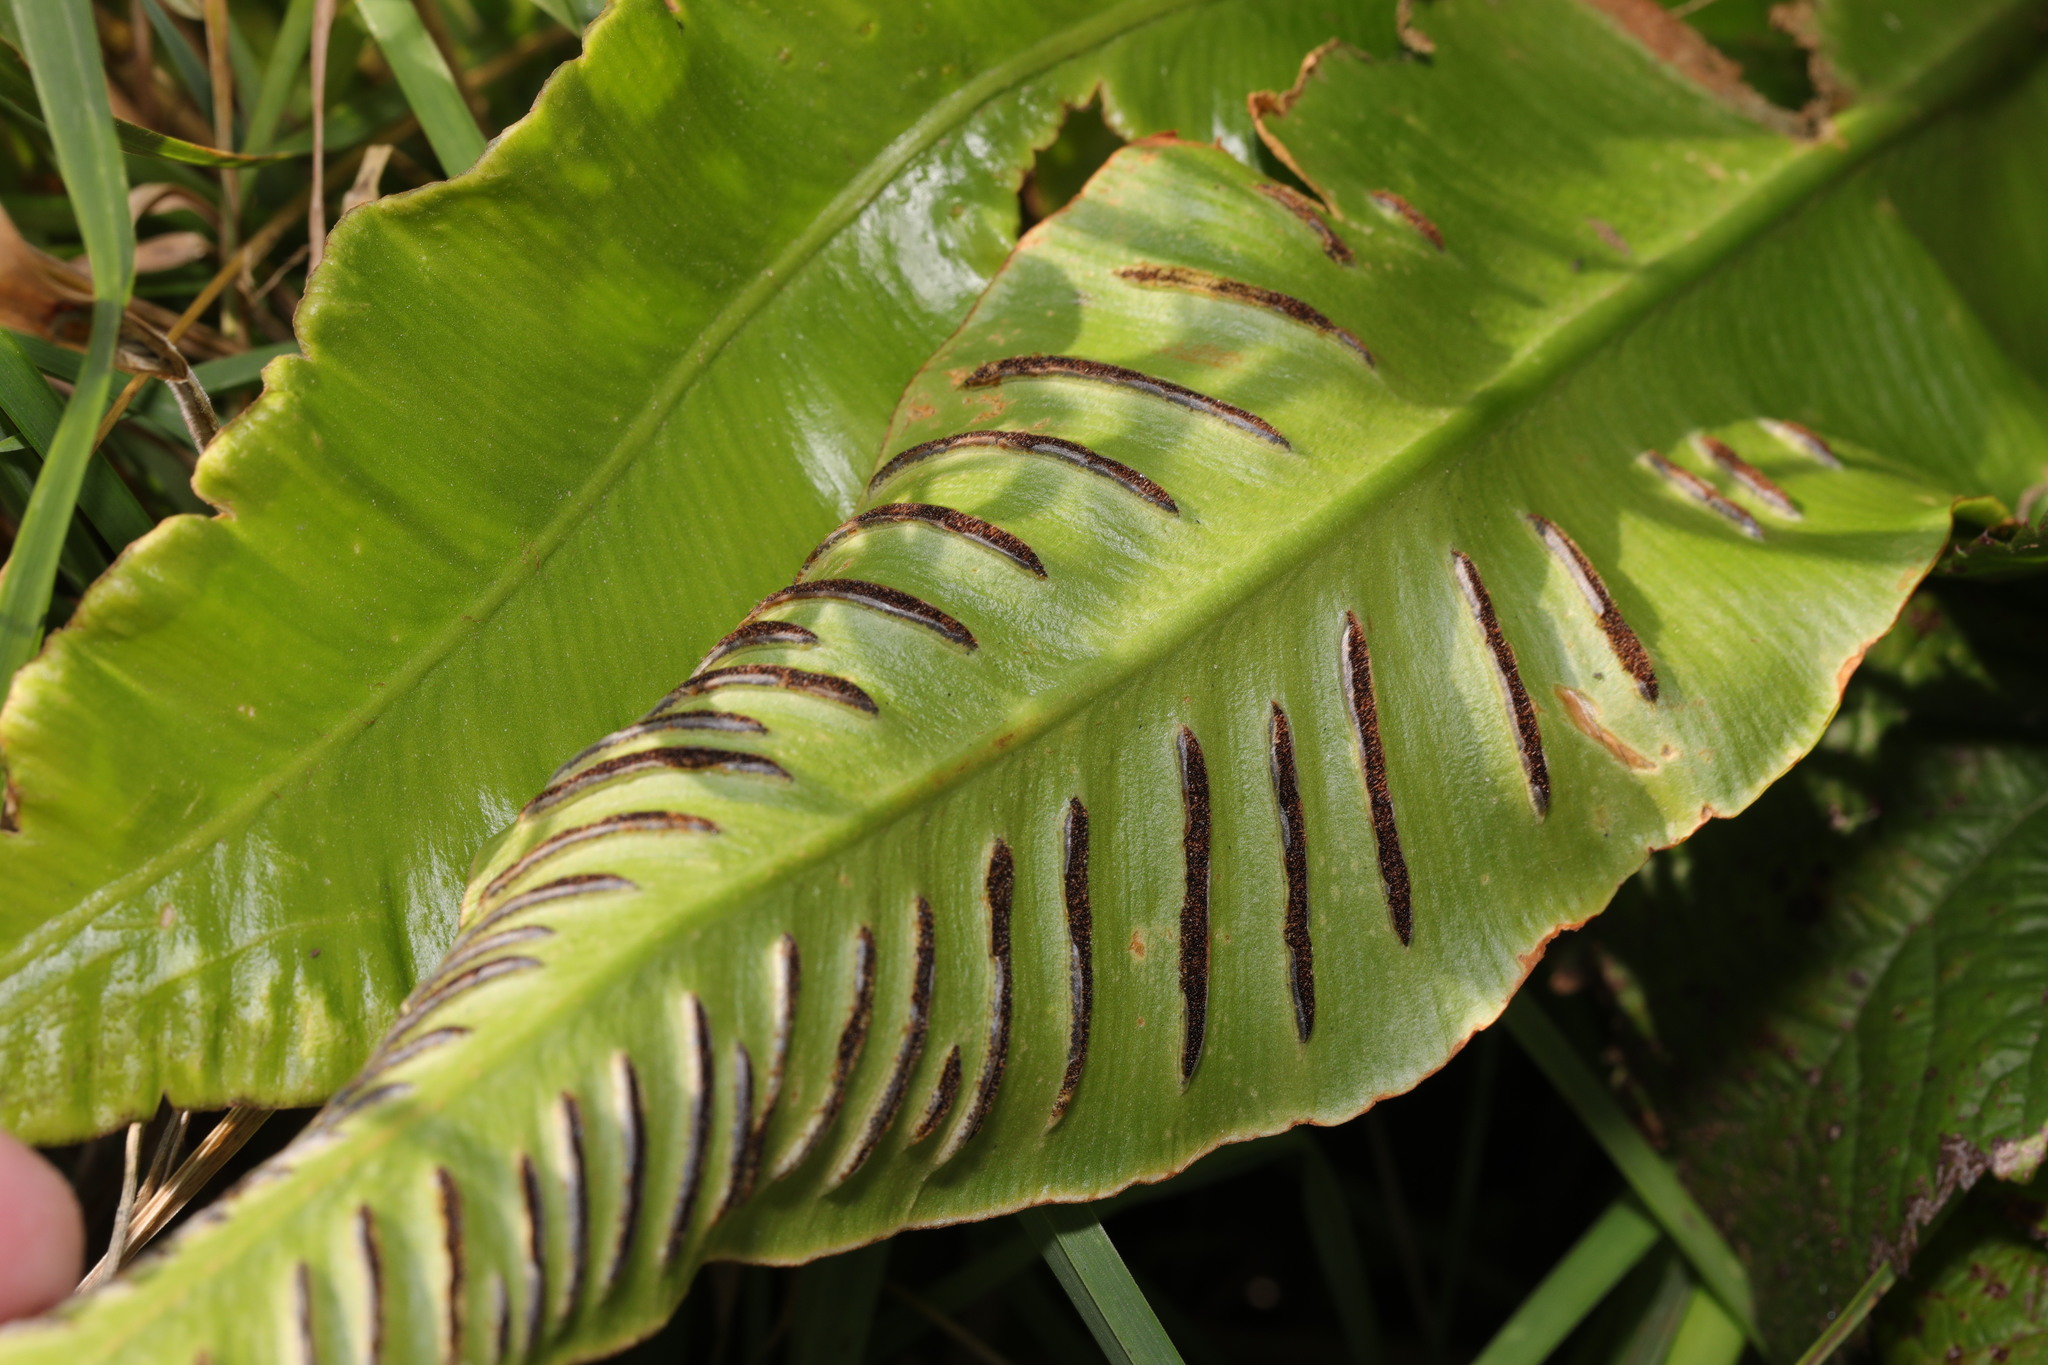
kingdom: Plantae
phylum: Tracheophyta
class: Polypodiopsida
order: Polypodiales
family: Aspleniaceae
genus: Asplenium
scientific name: Asplenium scolopendrium
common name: Hart's-tongue fern
